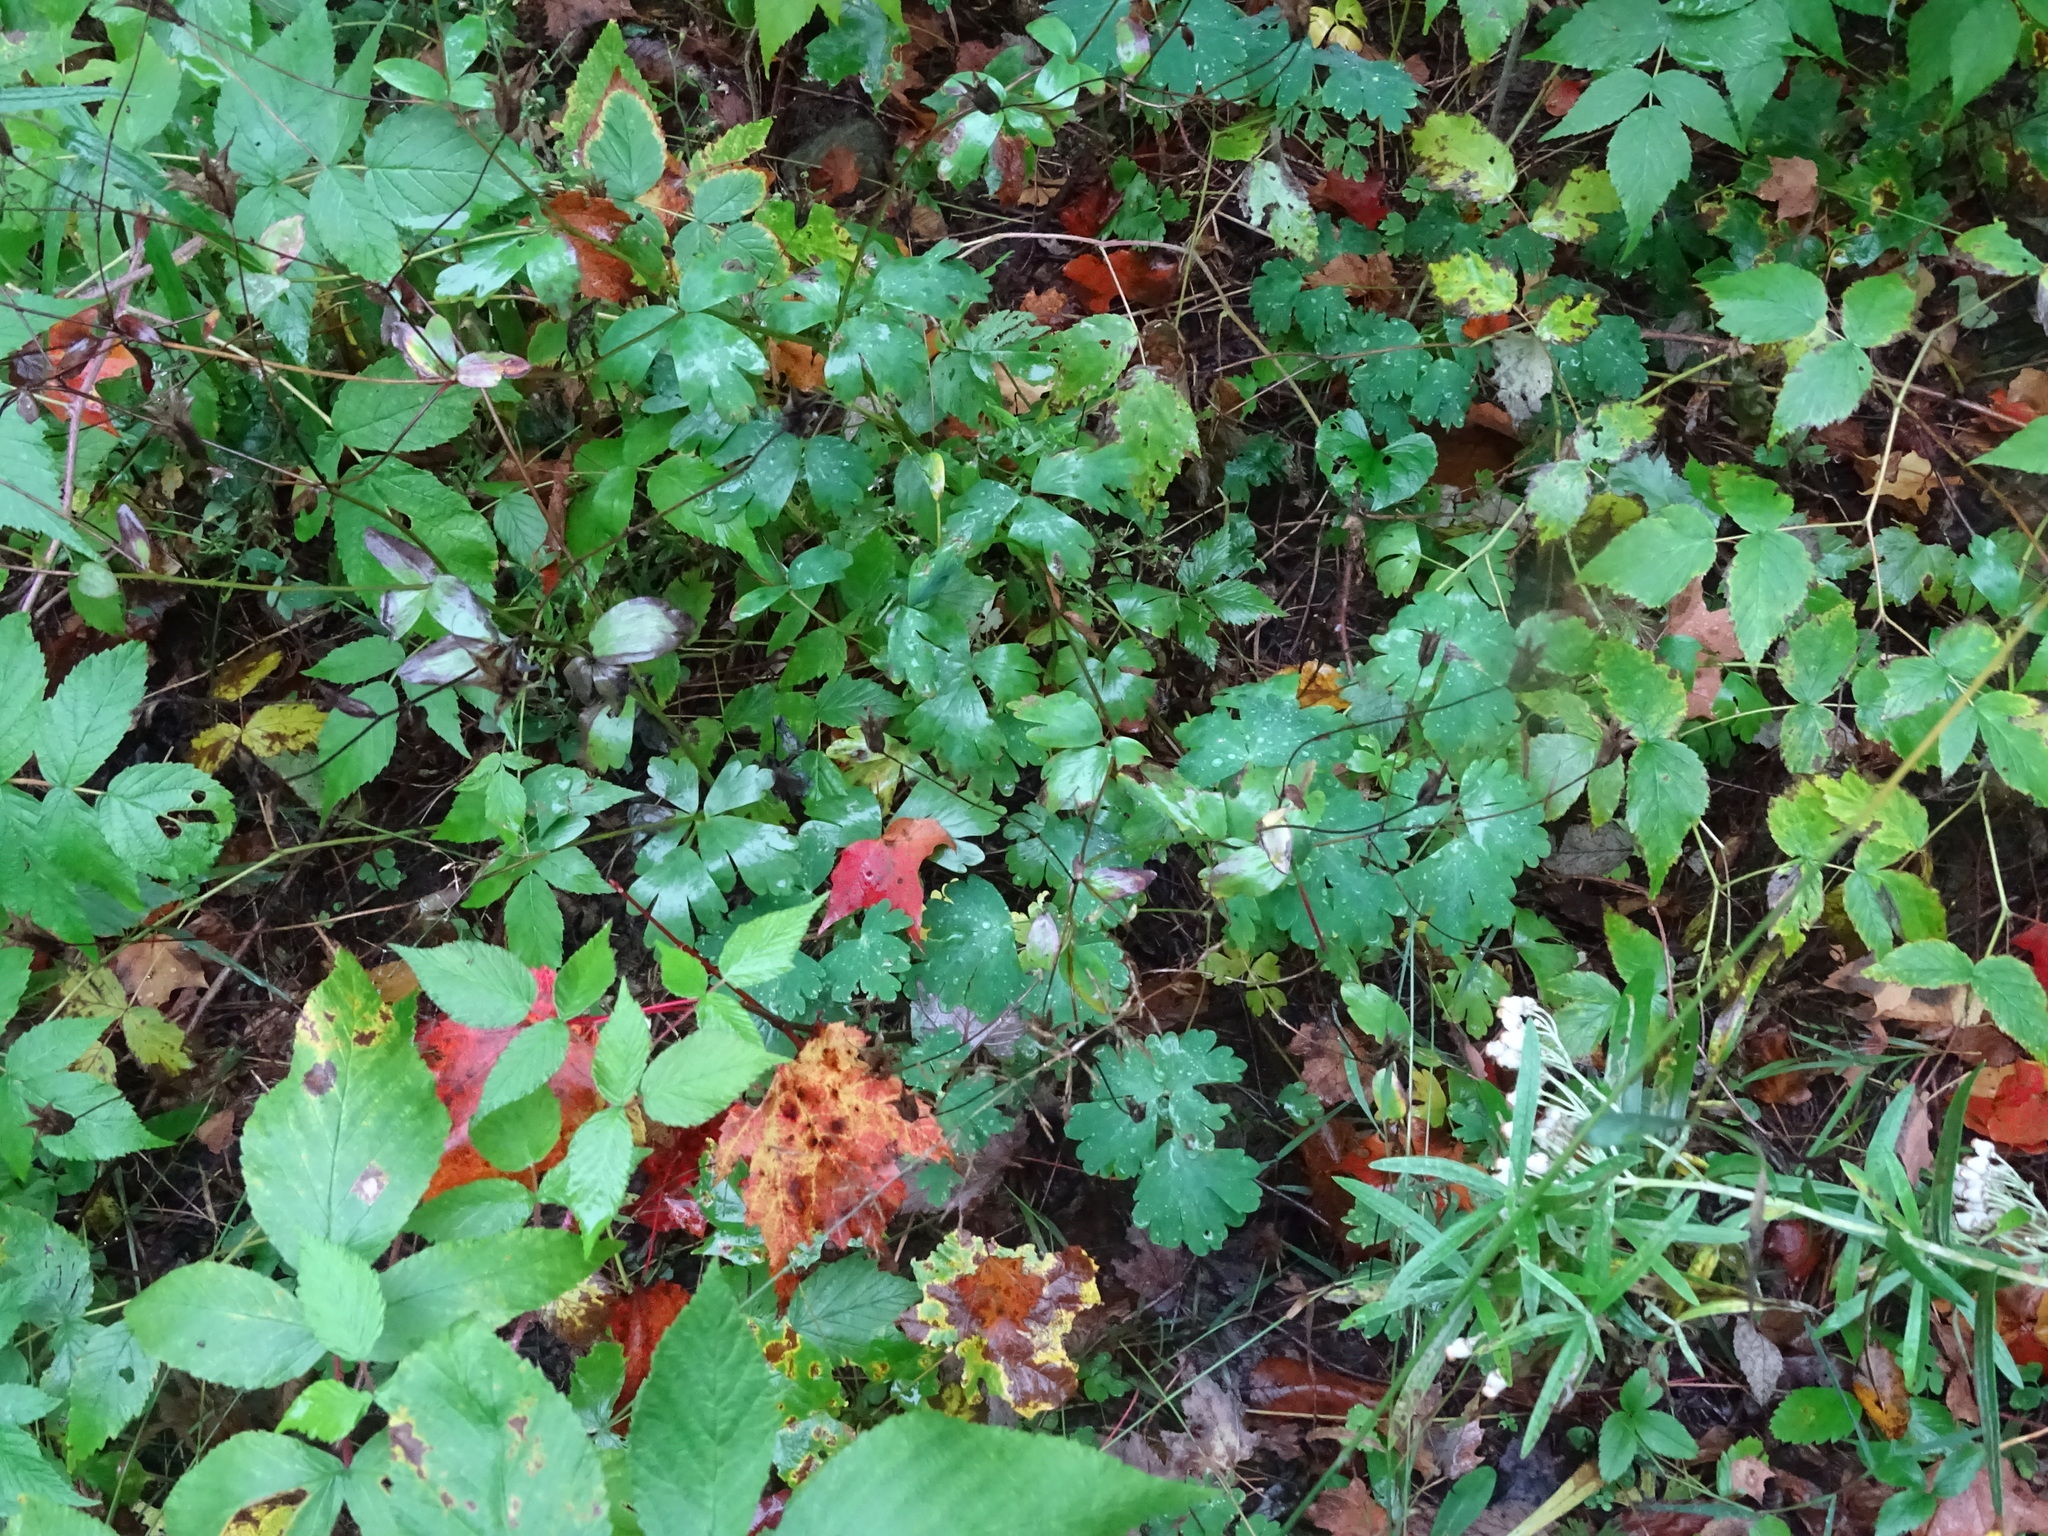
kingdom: Plantae
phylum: Tracheophyta
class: Magnoliopsida
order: Ranunculales
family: Ranunculaceae
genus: Aquilegia
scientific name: Aquilegia canadensis
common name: American columbine
